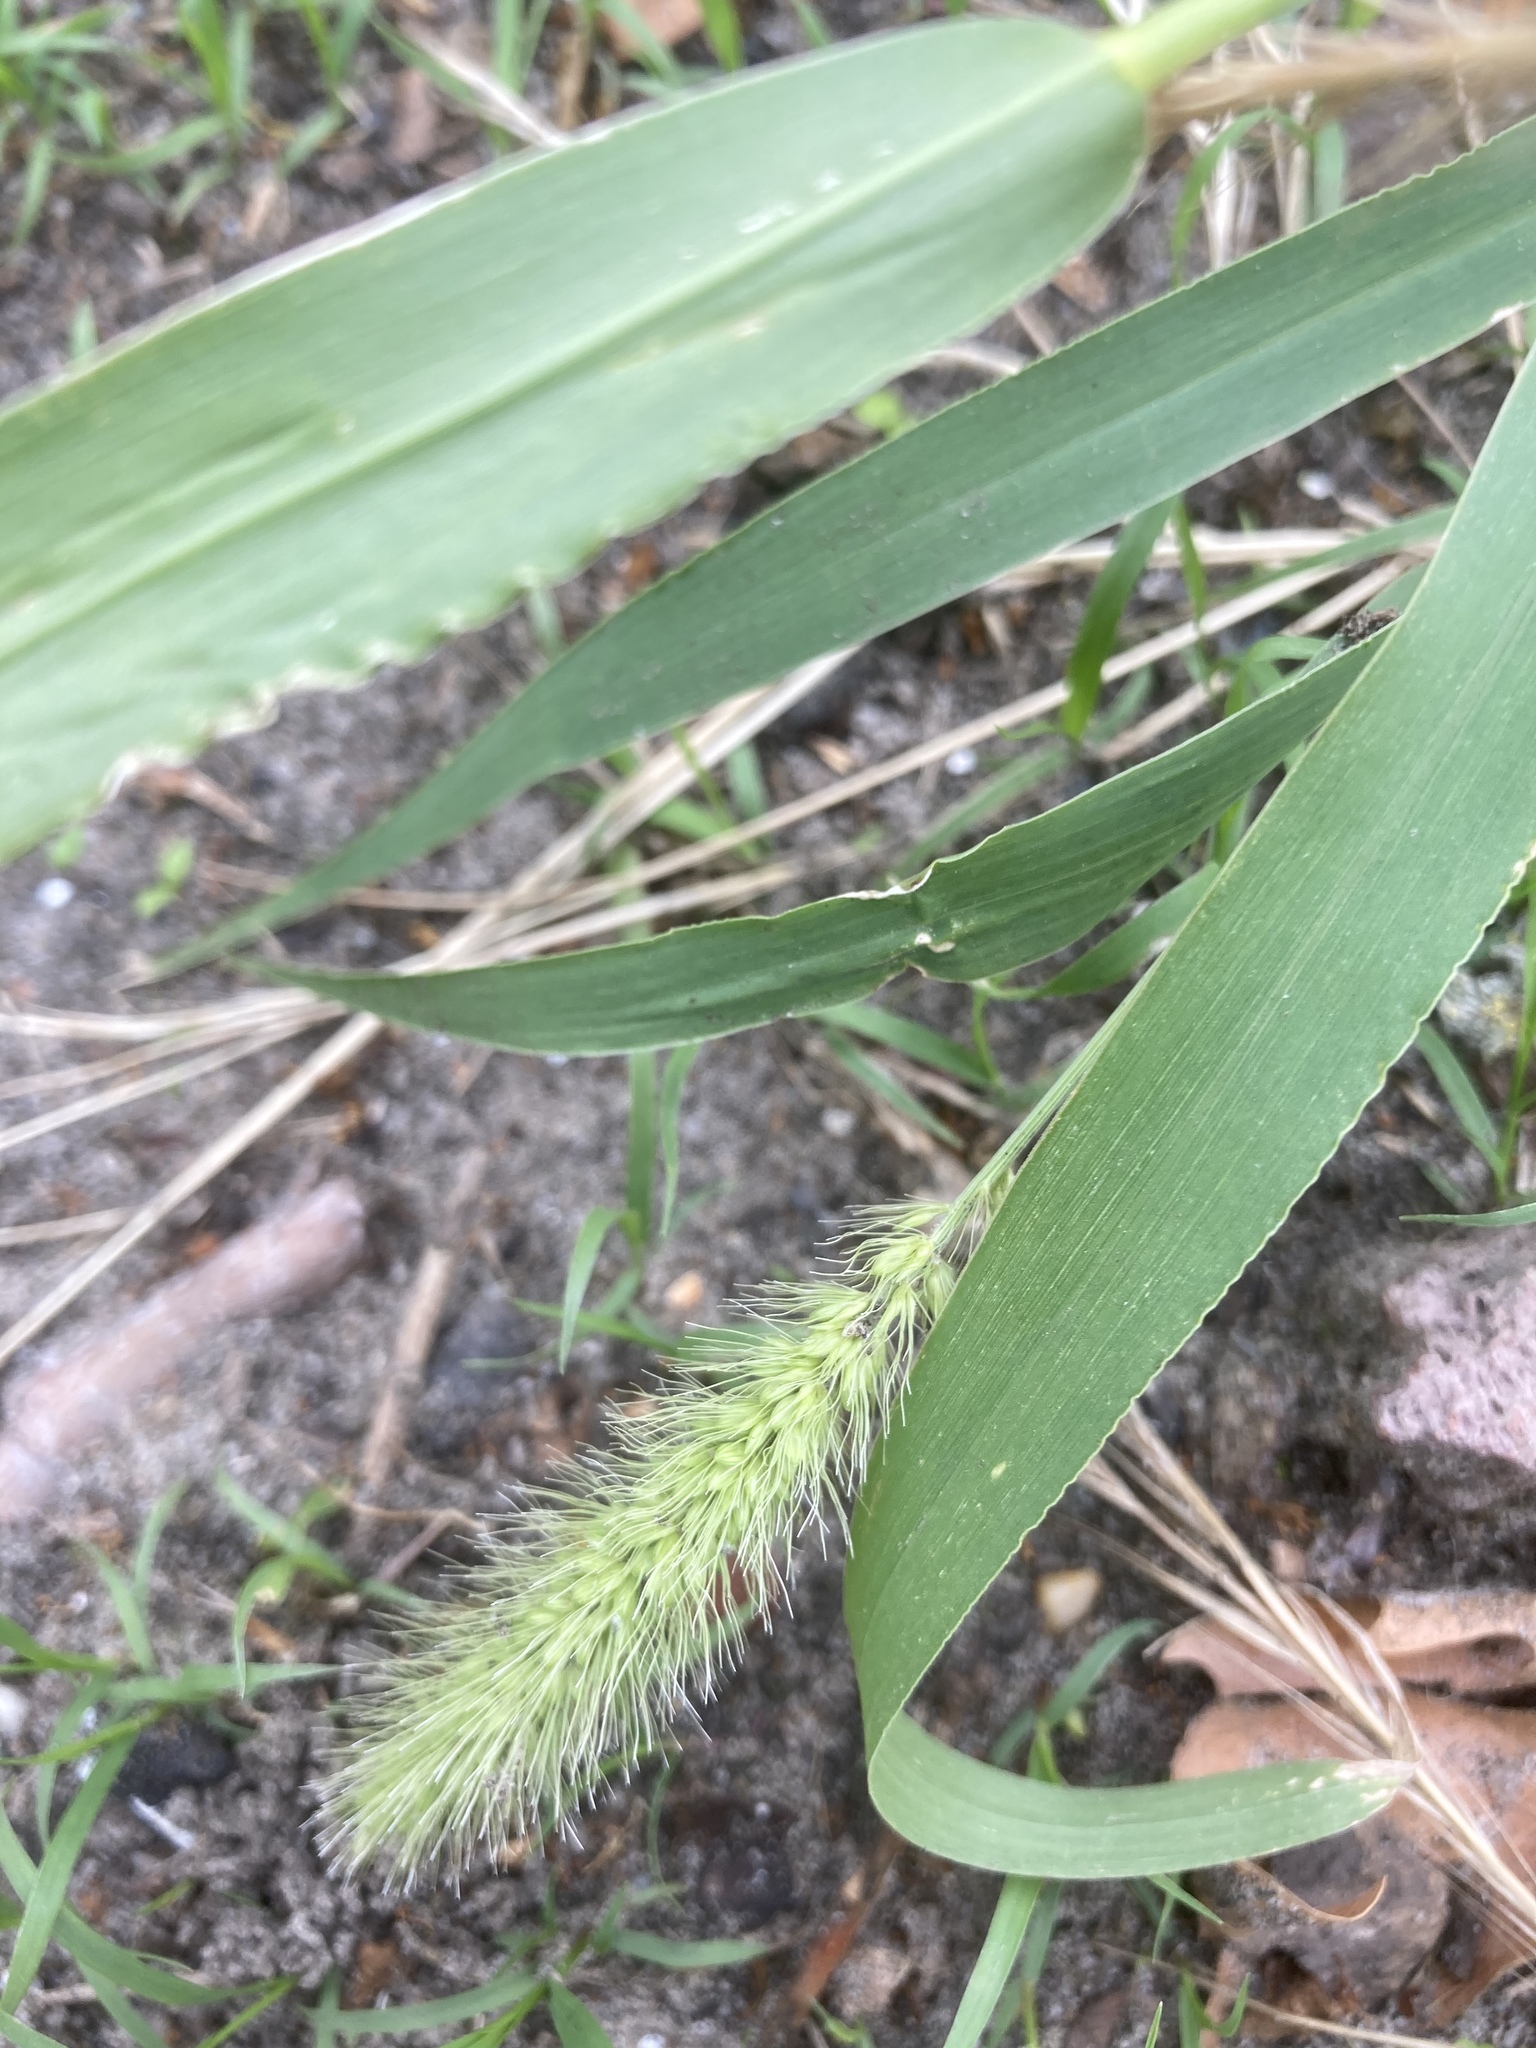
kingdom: Plantae
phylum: Tracheophyta
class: Liliopsida
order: Poales
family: Poaceae
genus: Setaria
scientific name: Setaria viridis
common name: Green bristlegrass
